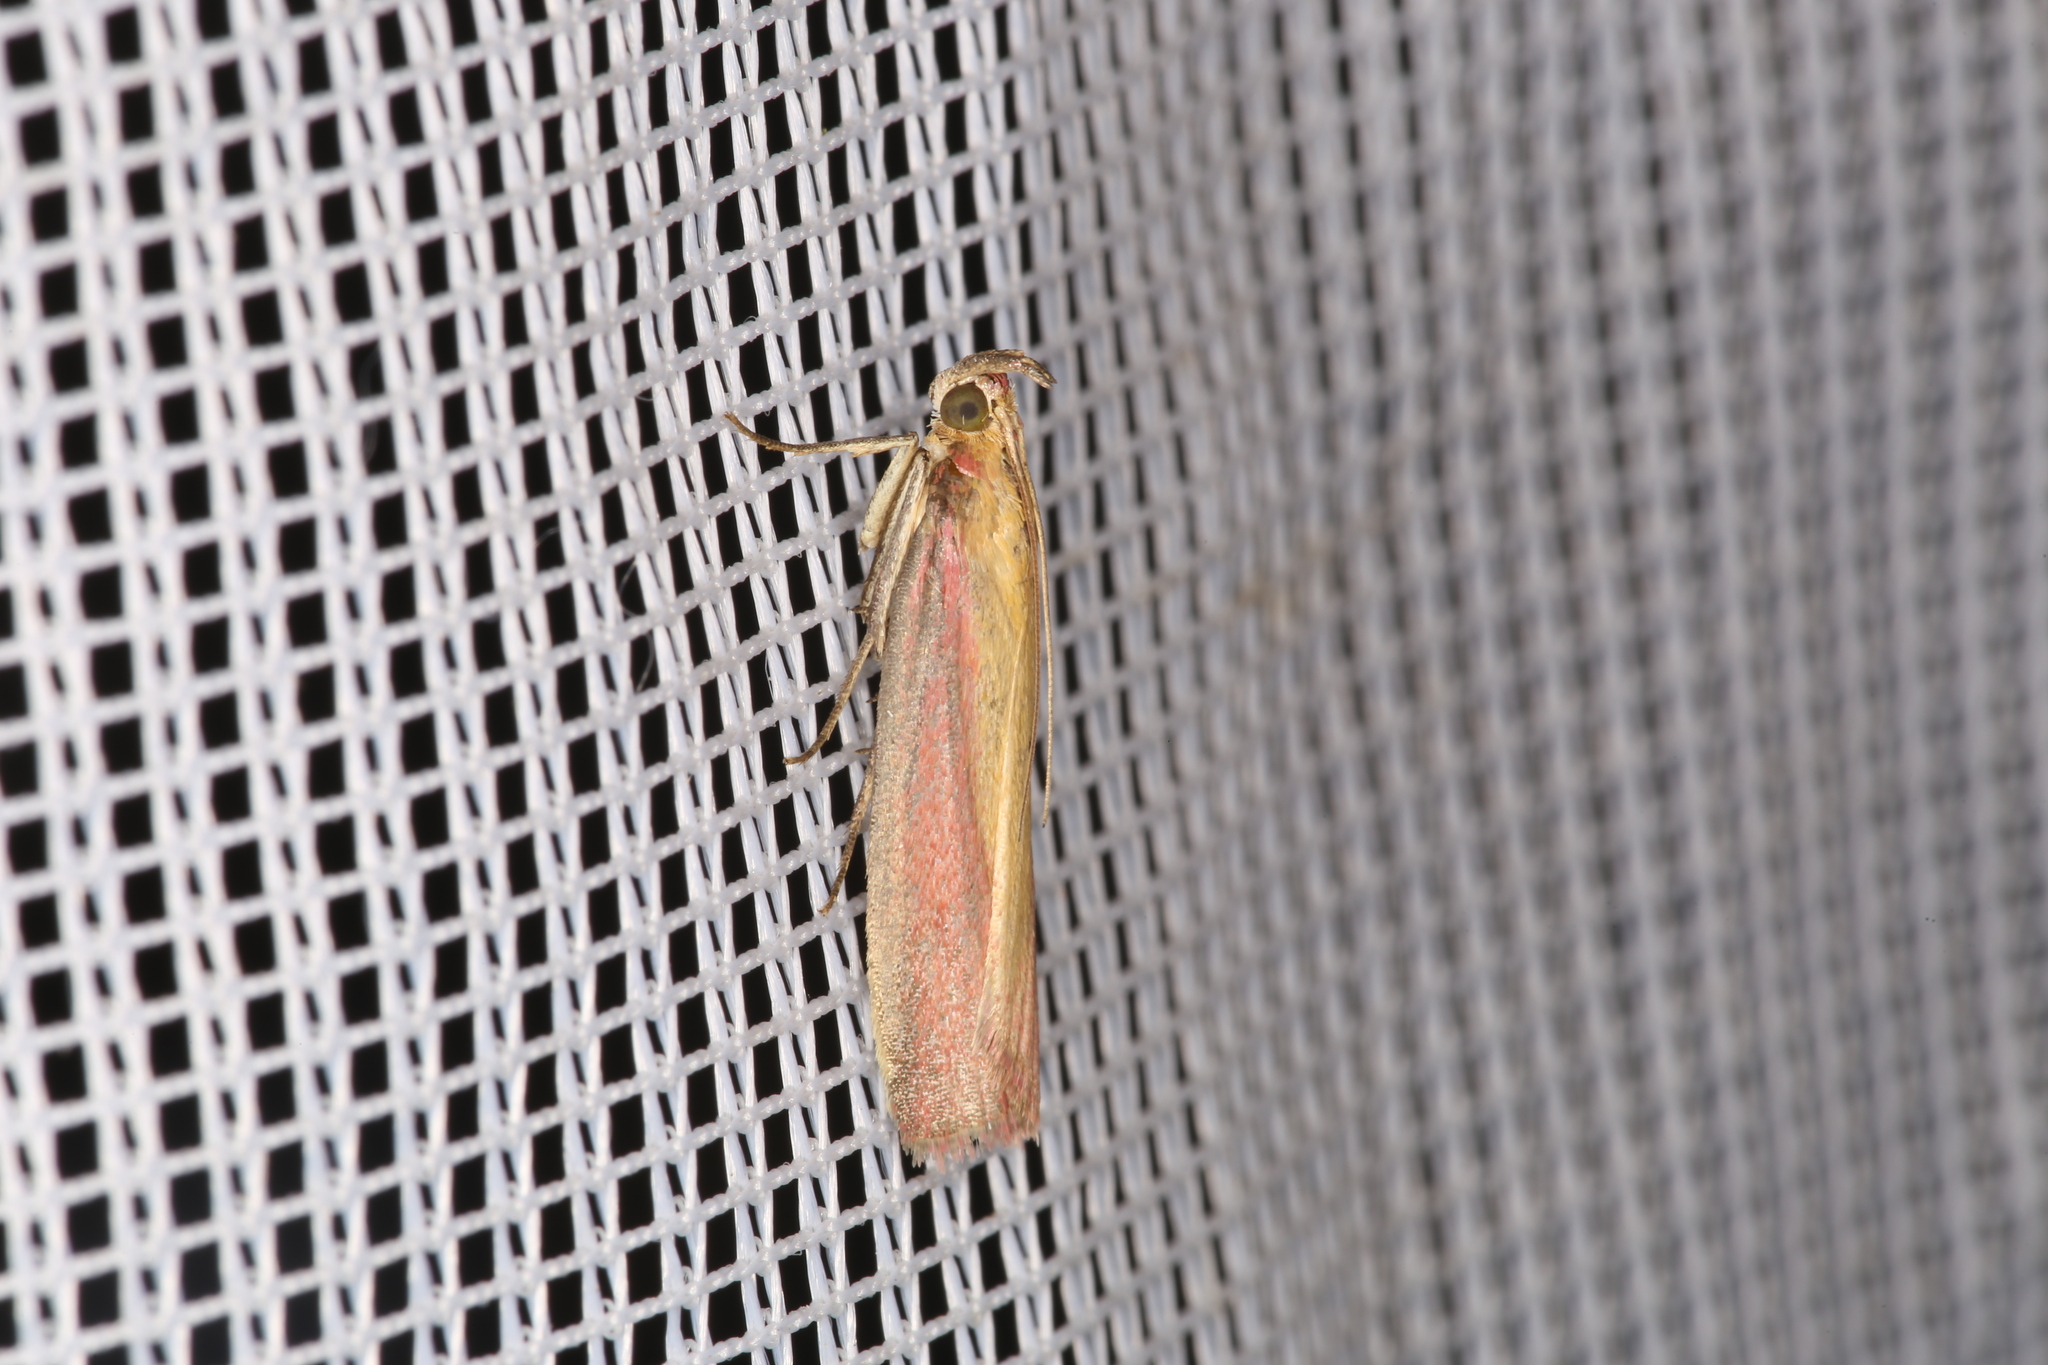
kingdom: Animalia
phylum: Arthropoda
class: Insecta
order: Lepidoptera
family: Pyralidae
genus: Oncocera
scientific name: Oncocera semirubella
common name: Rosy-striped knot-horn
